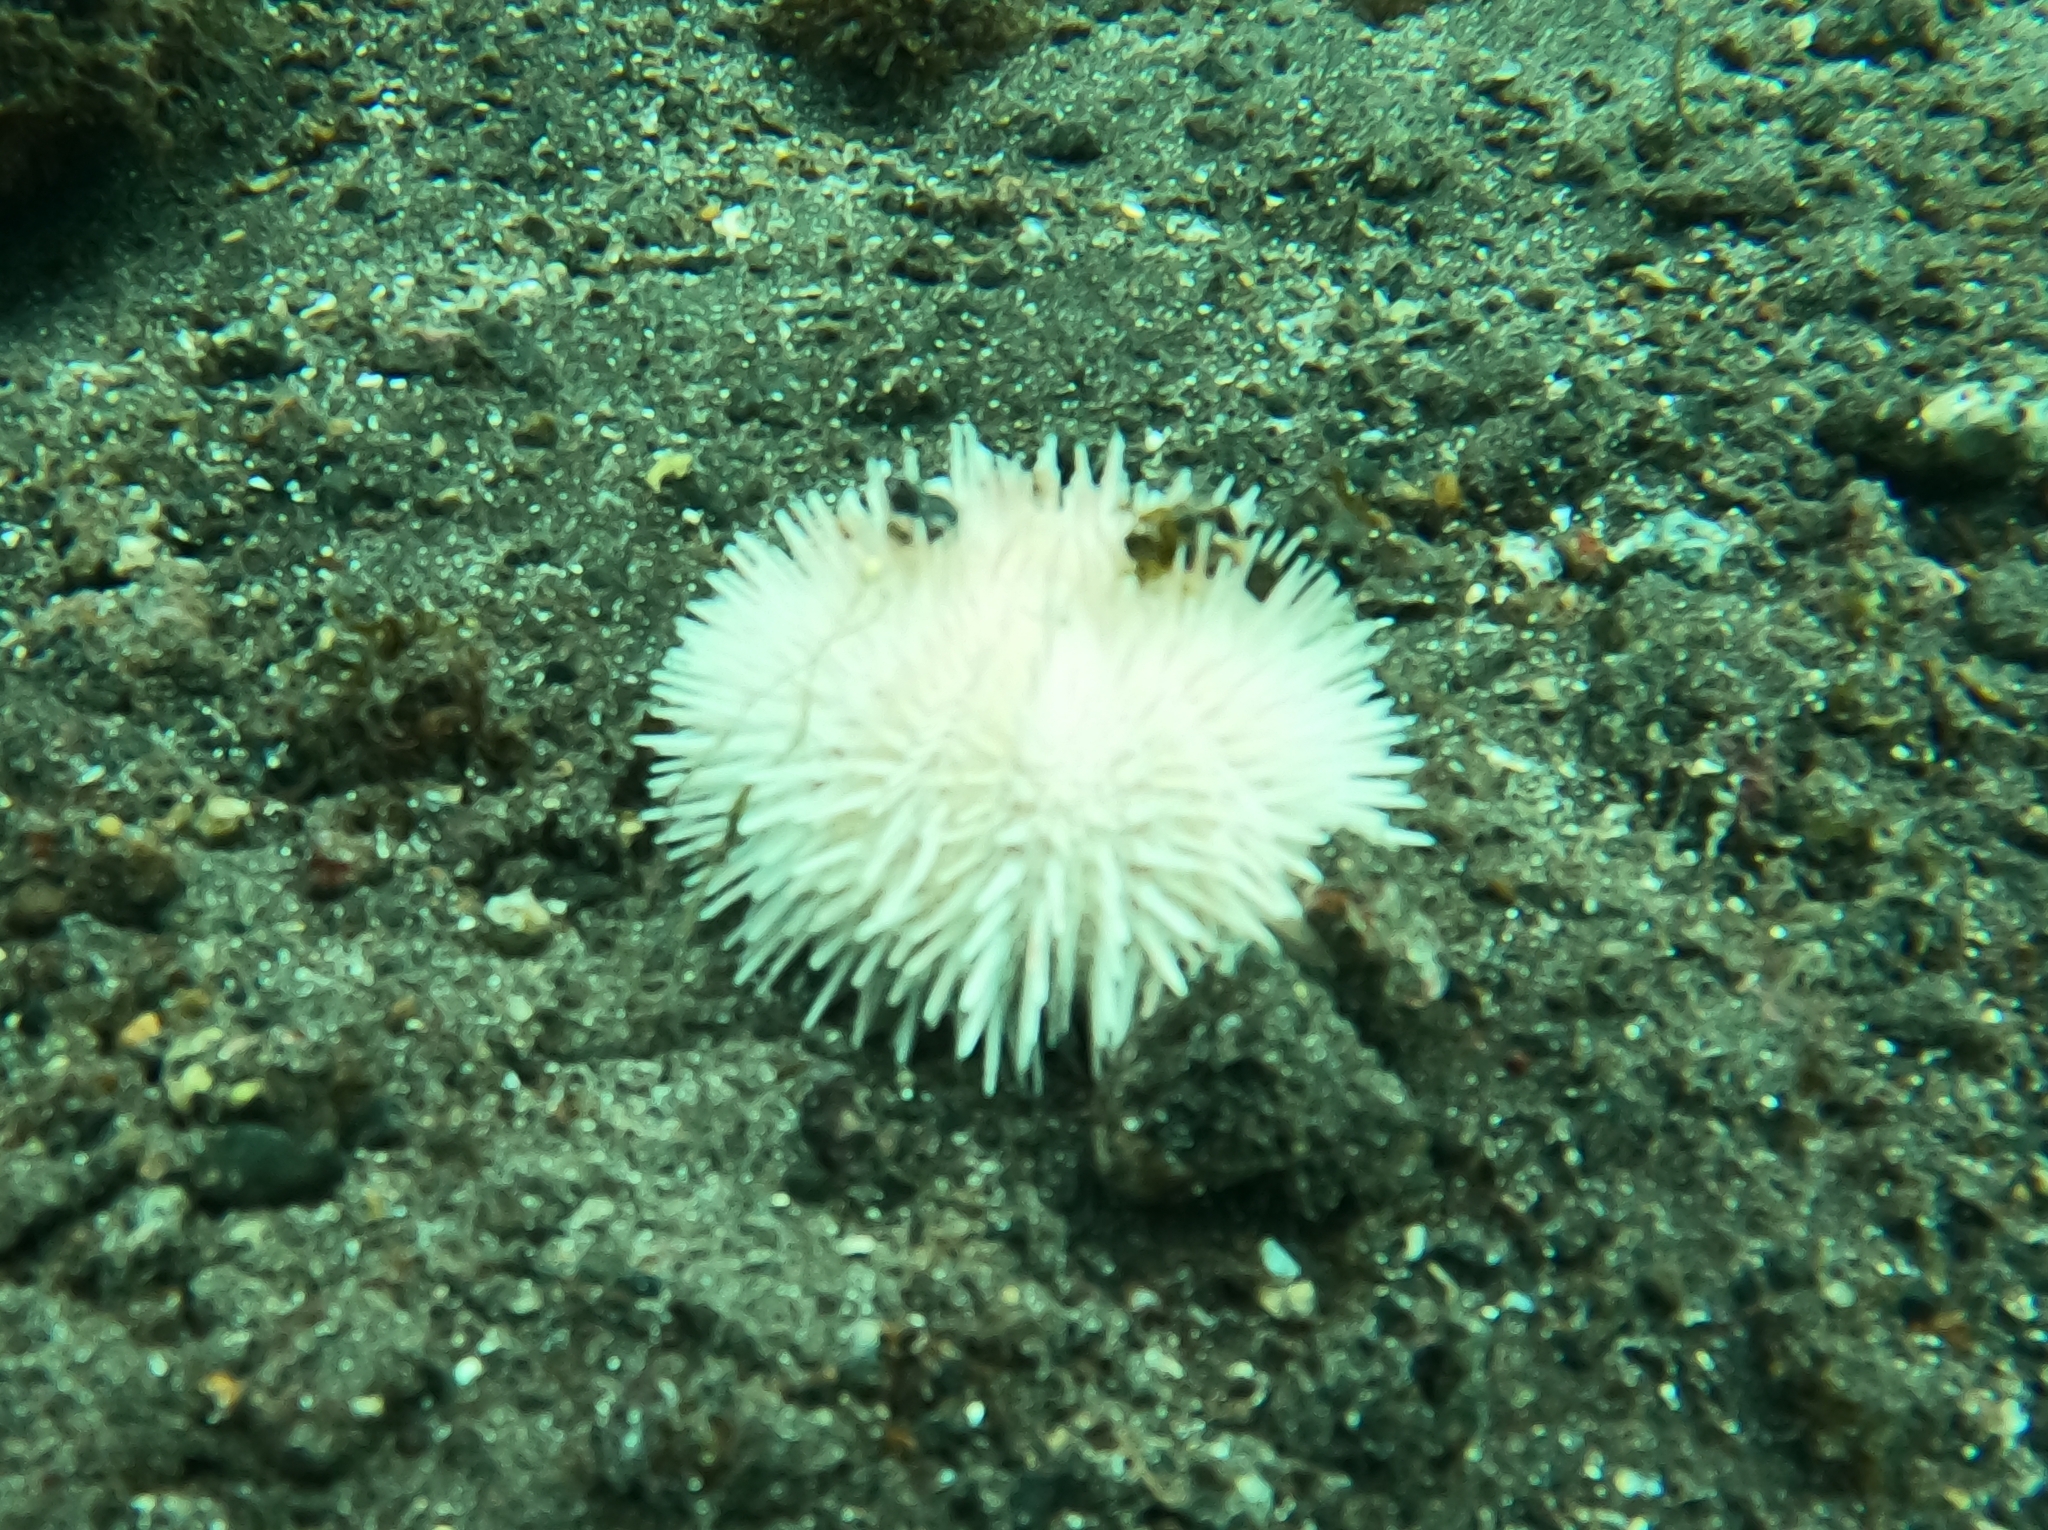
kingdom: Animalia
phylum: Echinodermata
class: Echinoidea
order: Camarodonta
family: Toxopneustidae
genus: Sphaerechinus
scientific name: Sphaerechinus granularis
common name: Violet sea urchin
